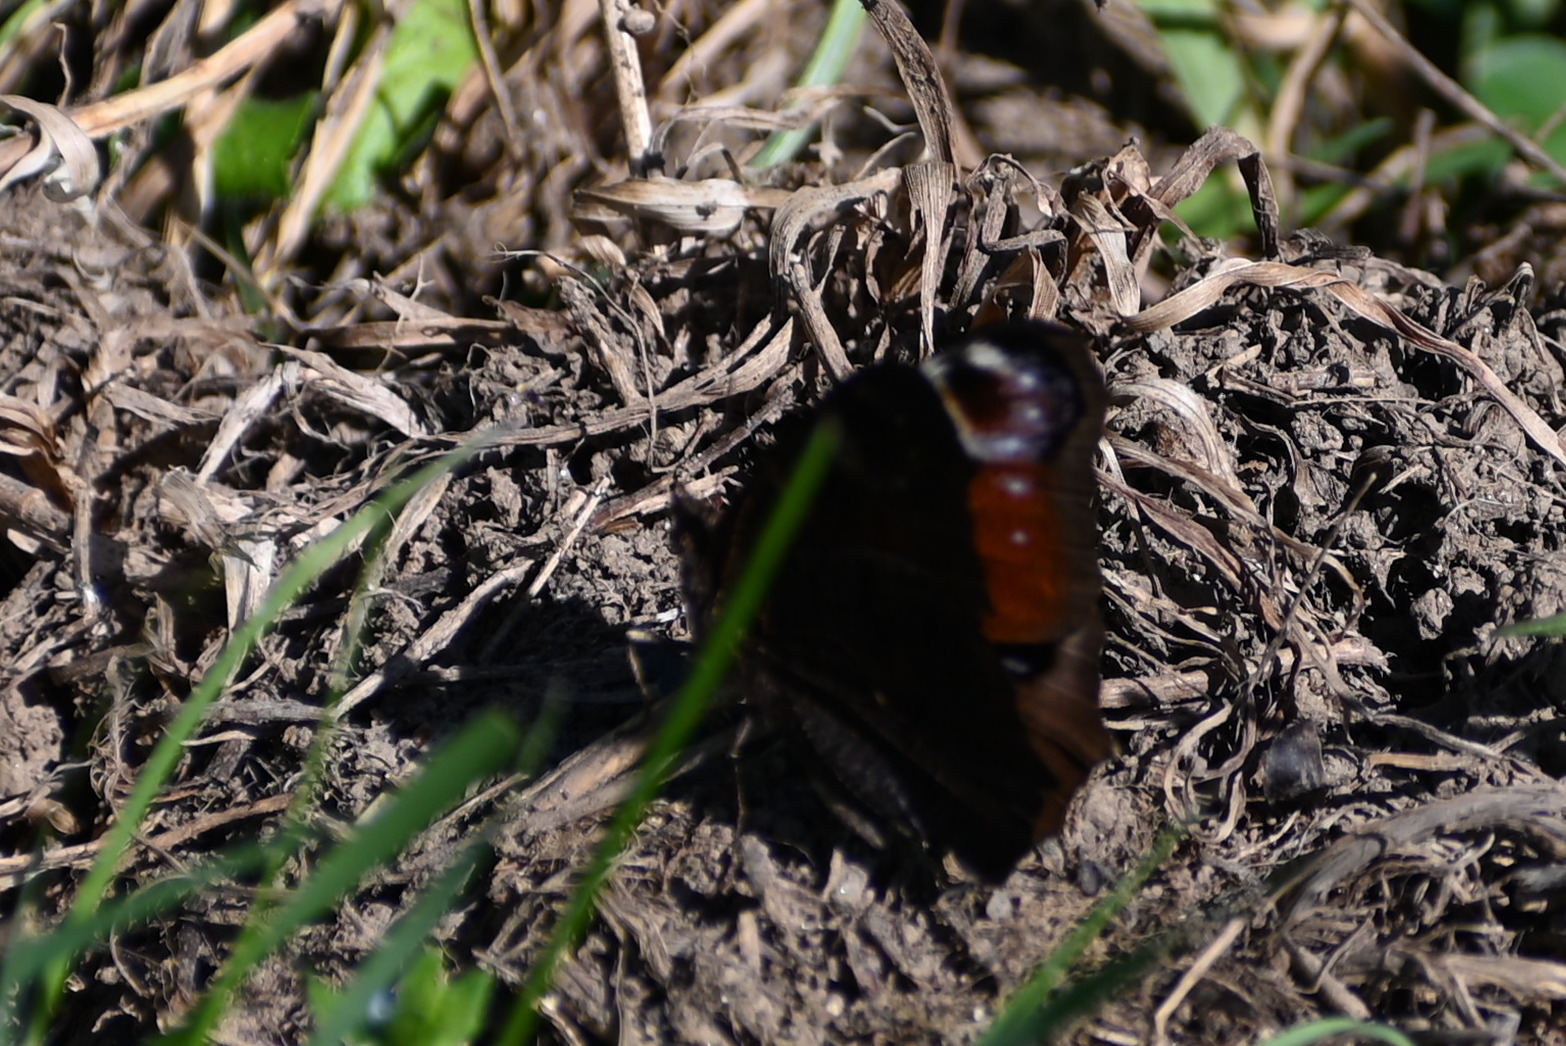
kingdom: Animalia
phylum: Arthropoda
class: Insecta
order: Lepidoptera
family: Nymphalidae
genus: Aglais
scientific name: Aglais io
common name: Peacock
